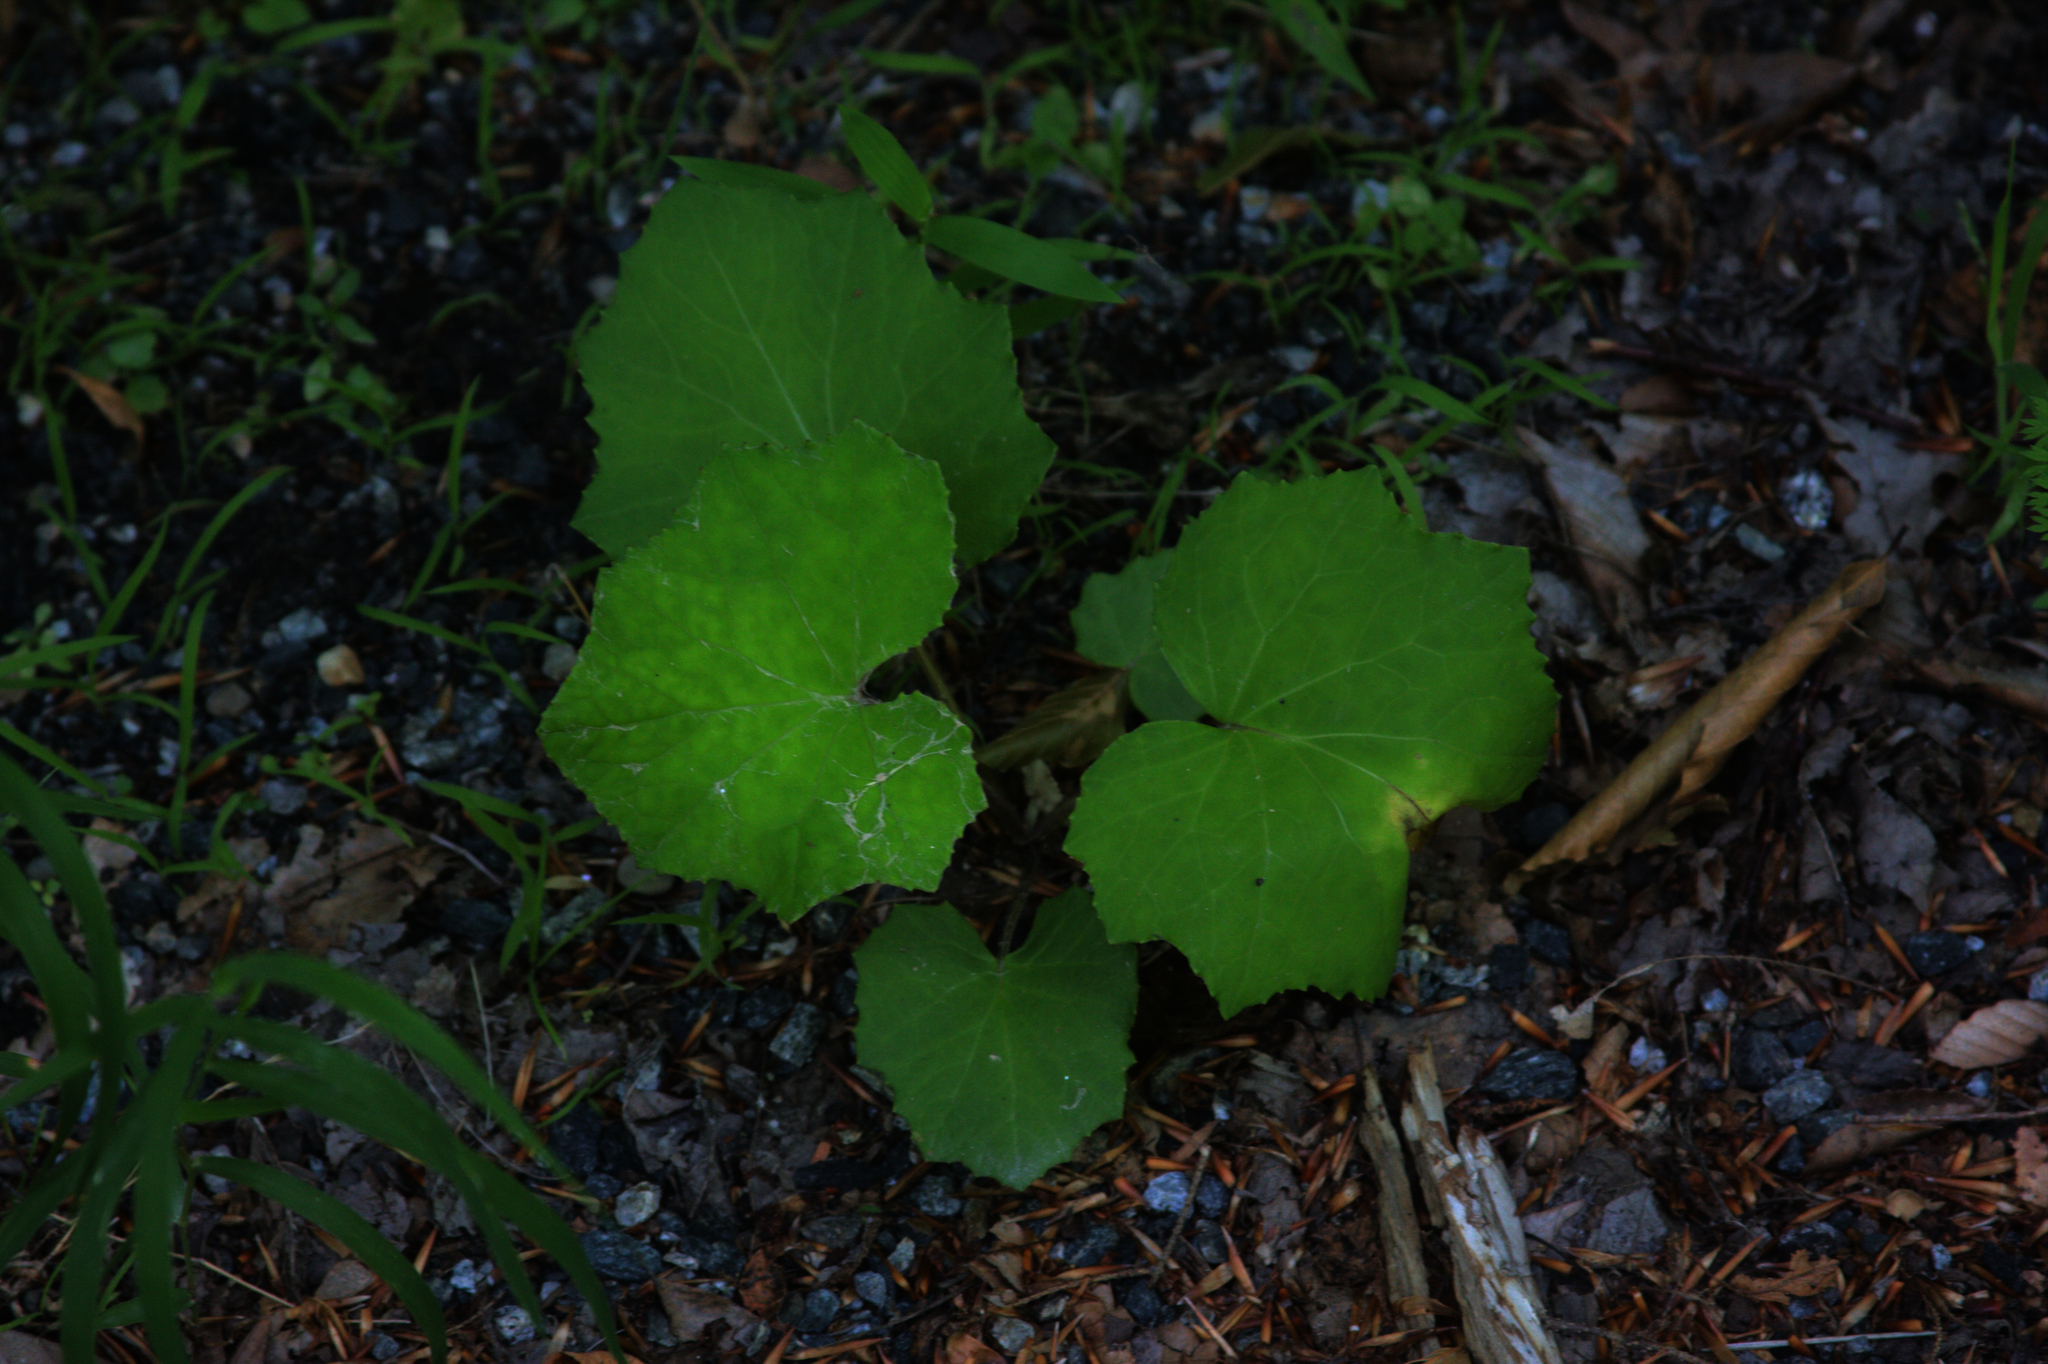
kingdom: Plantae
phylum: Tracheophyta
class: Magnoliopsida
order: Asterales
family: Asteraceae
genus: Tussilago
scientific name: Tussilago farfara
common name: Coltsfoot
